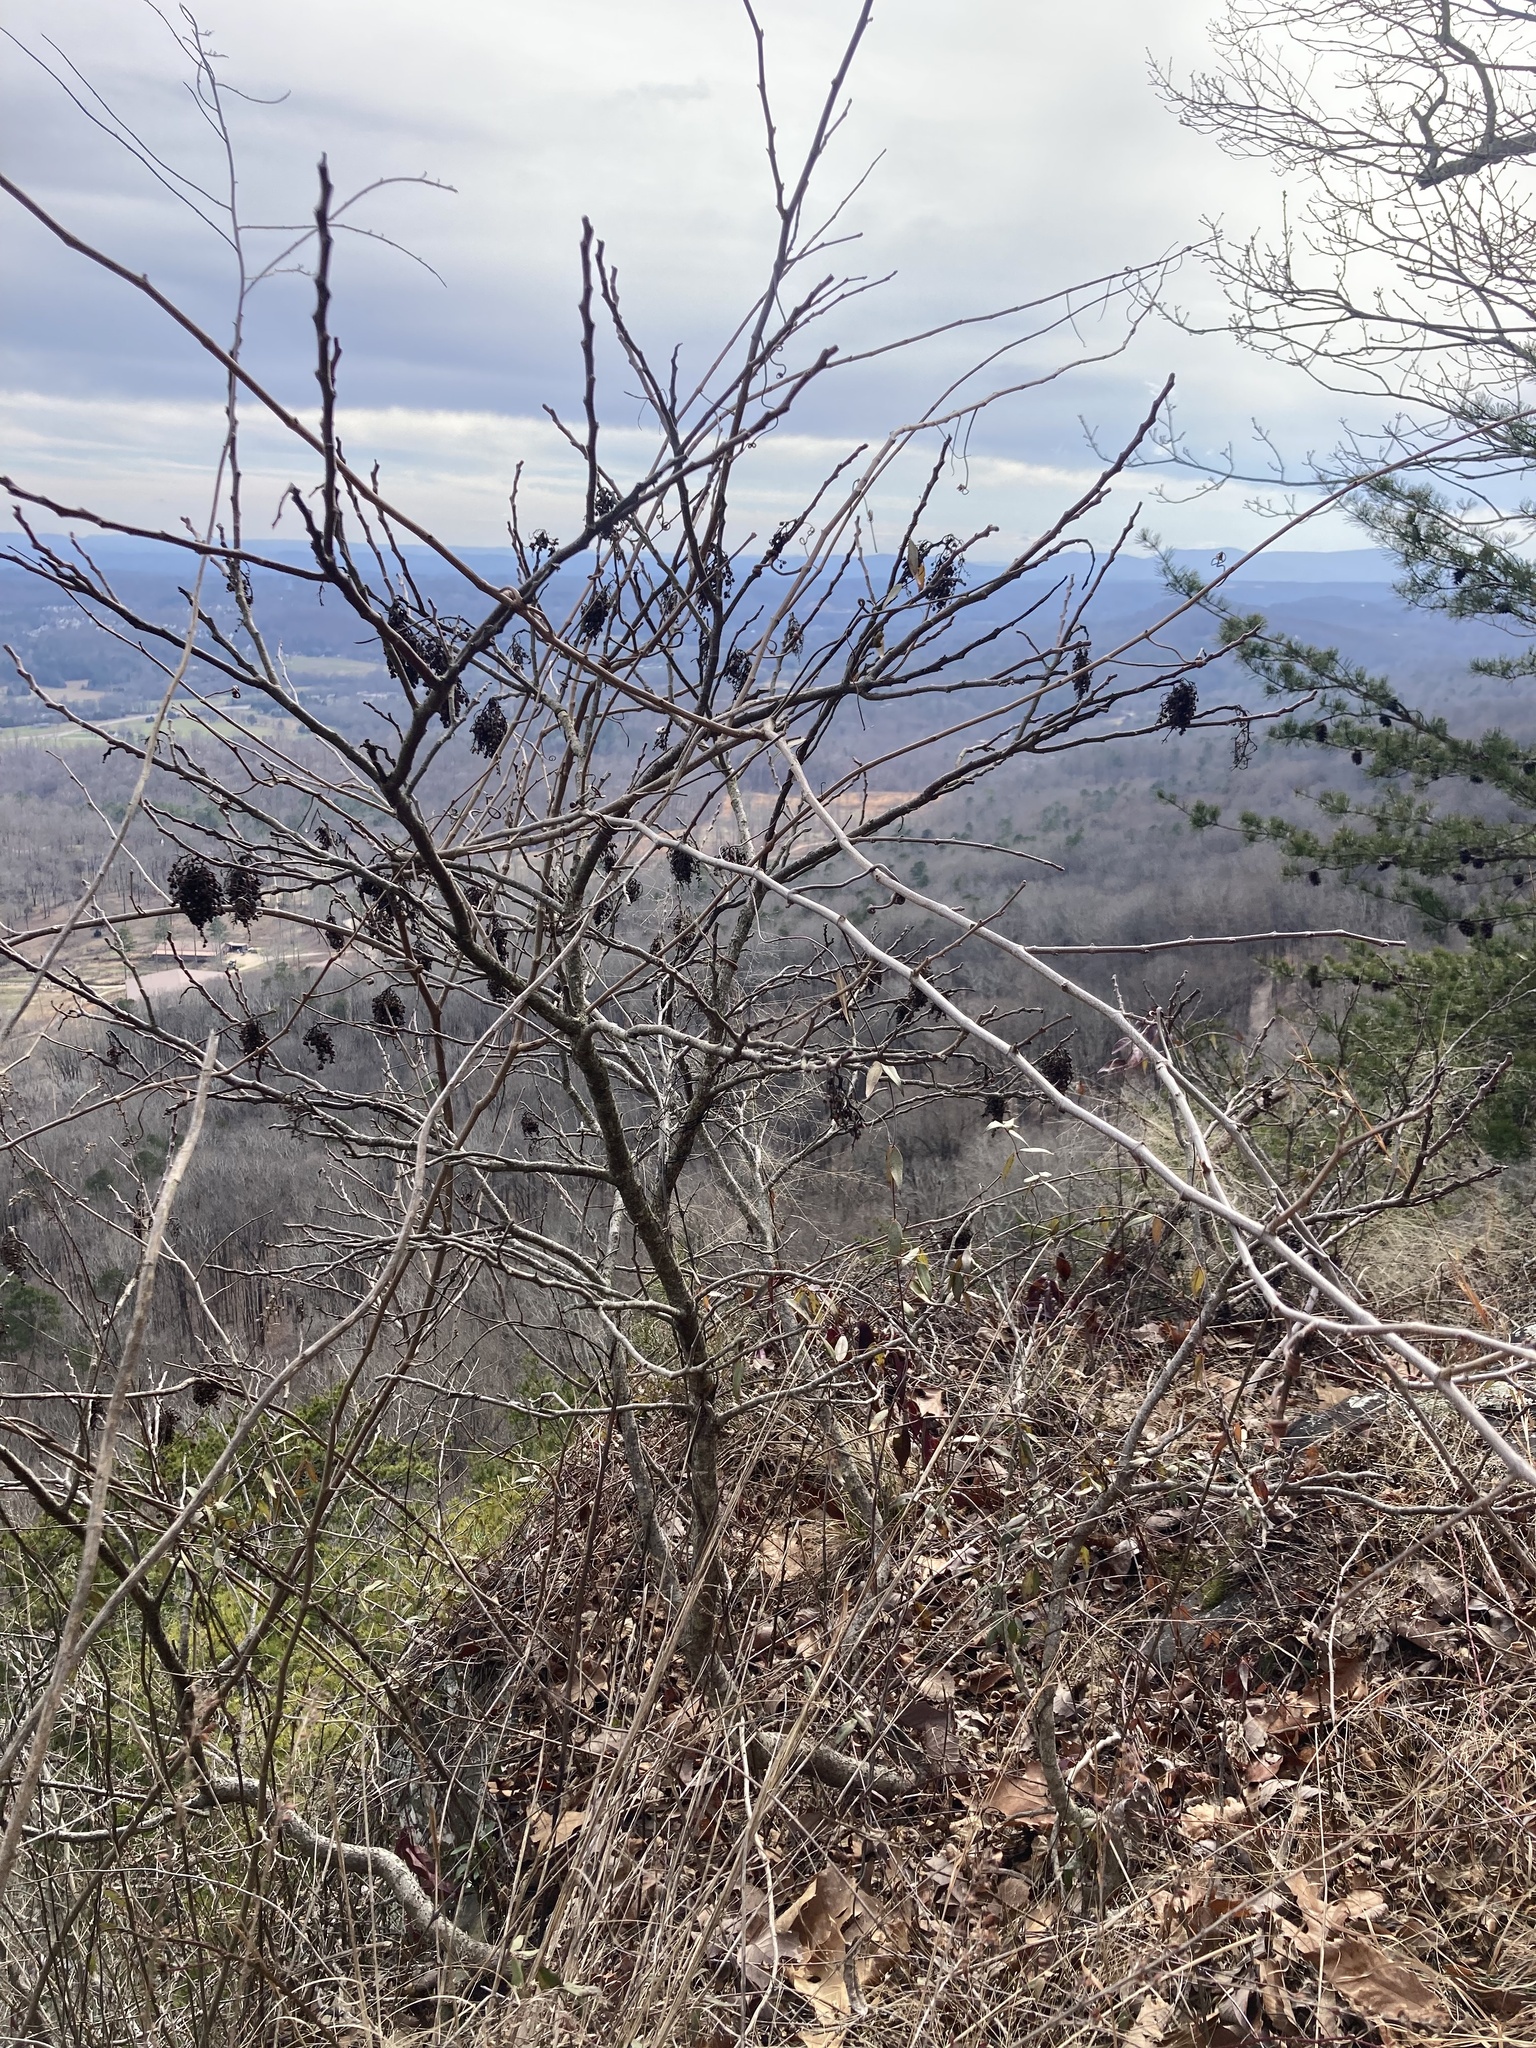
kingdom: Plantae
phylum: Tracheophyta
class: Magnoliopsida
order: Sapindales
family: Anacardiaceae
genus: Rhus
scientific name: Rhus copallina
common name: Shining sumac
